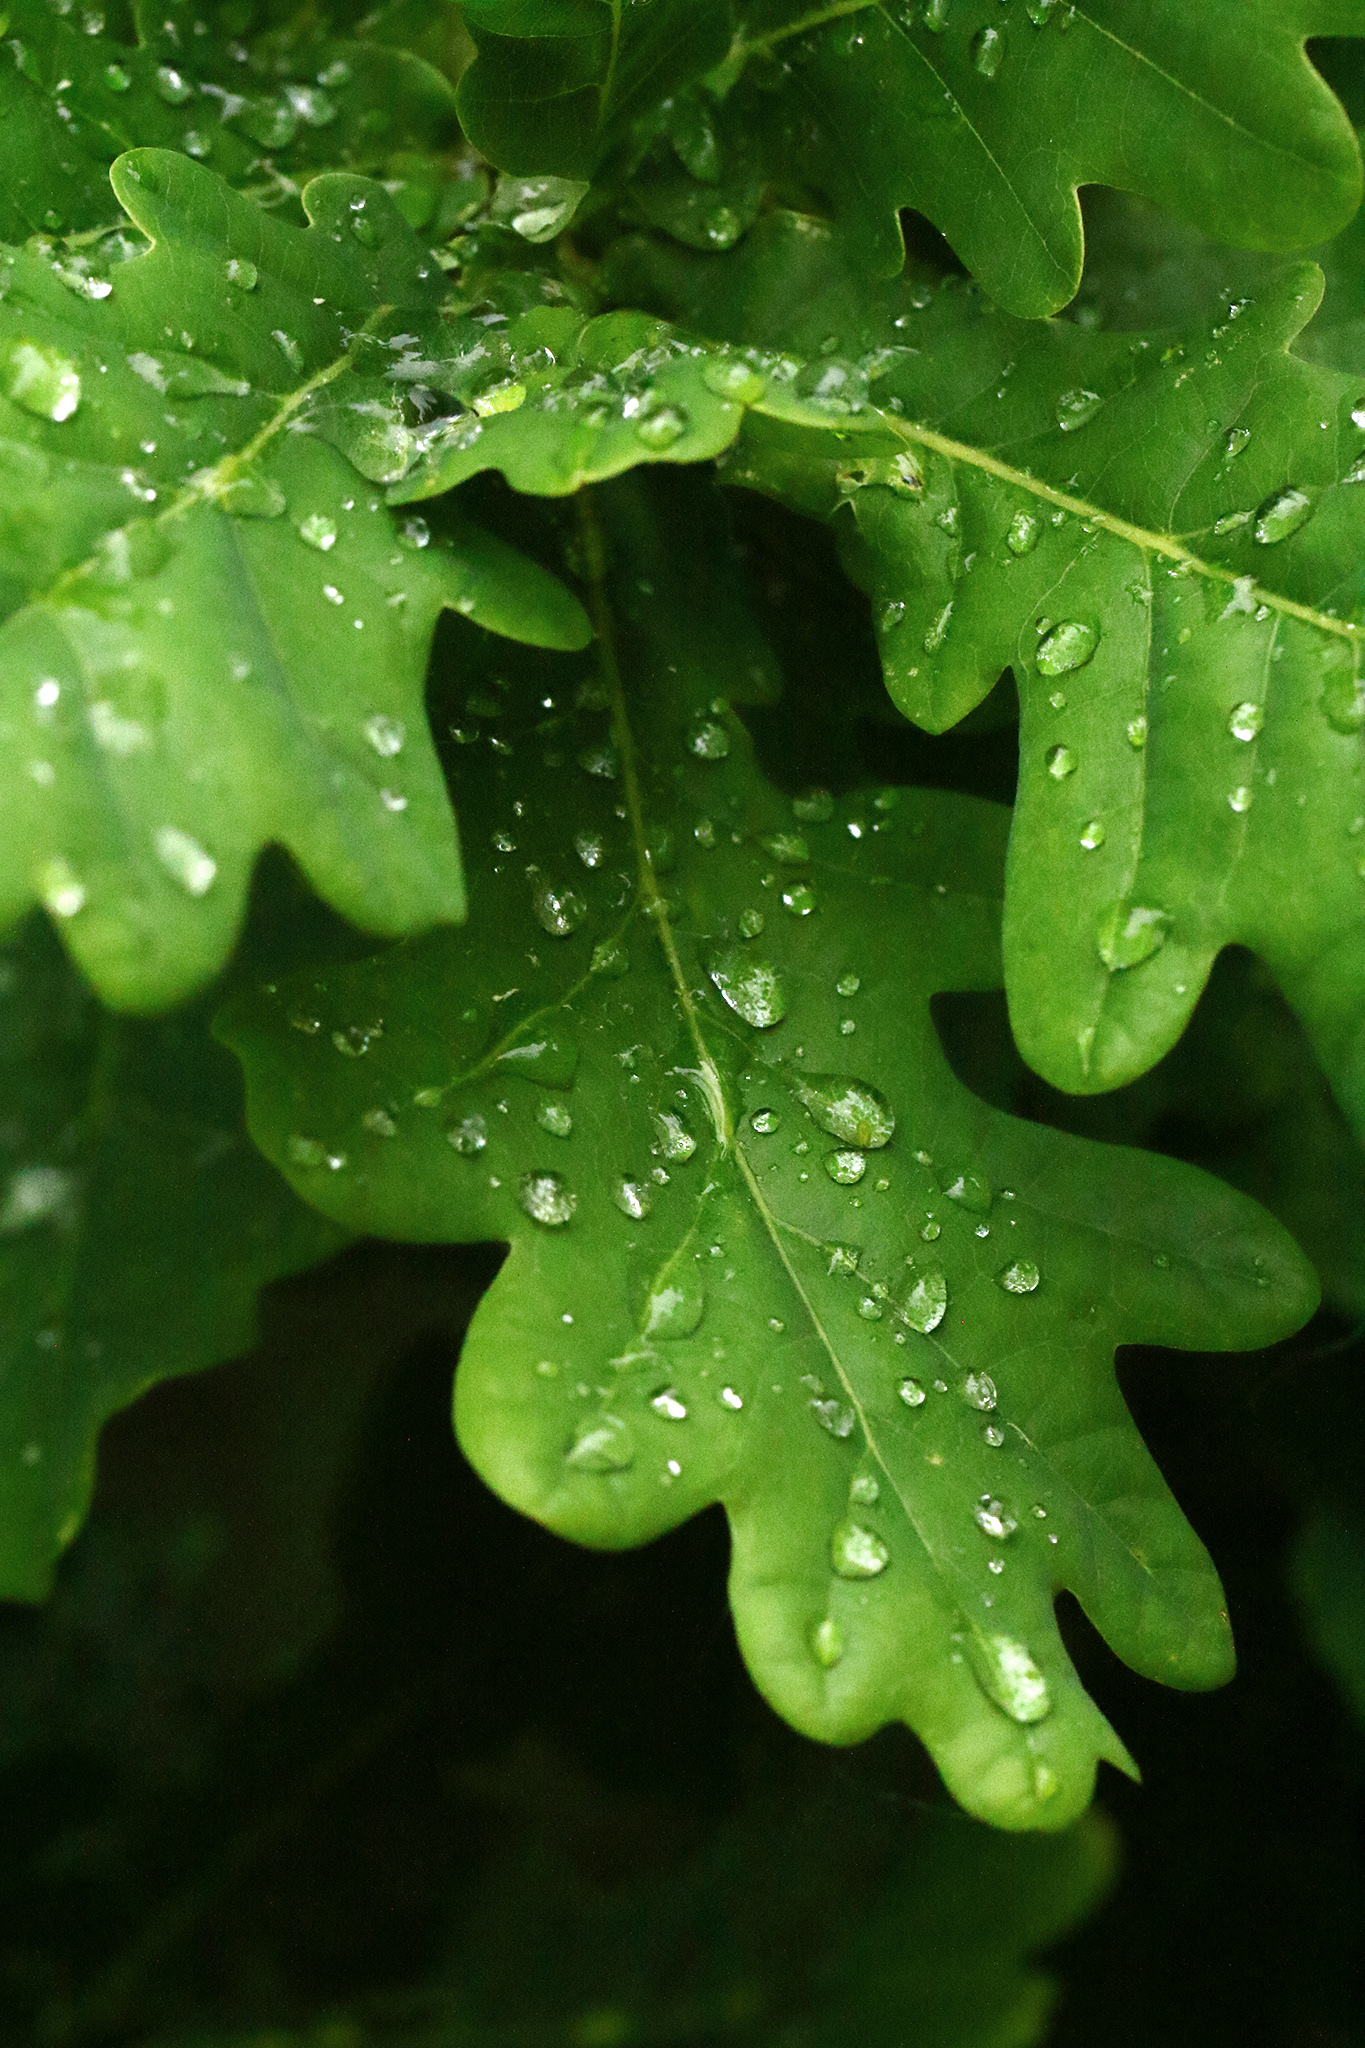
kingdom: Plantae
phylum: Tracheophyta
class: Magnoliopsida
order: Fagales
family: Fagaceae
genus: Quercus
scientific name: Quercus robur
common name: Pedunculate oak
